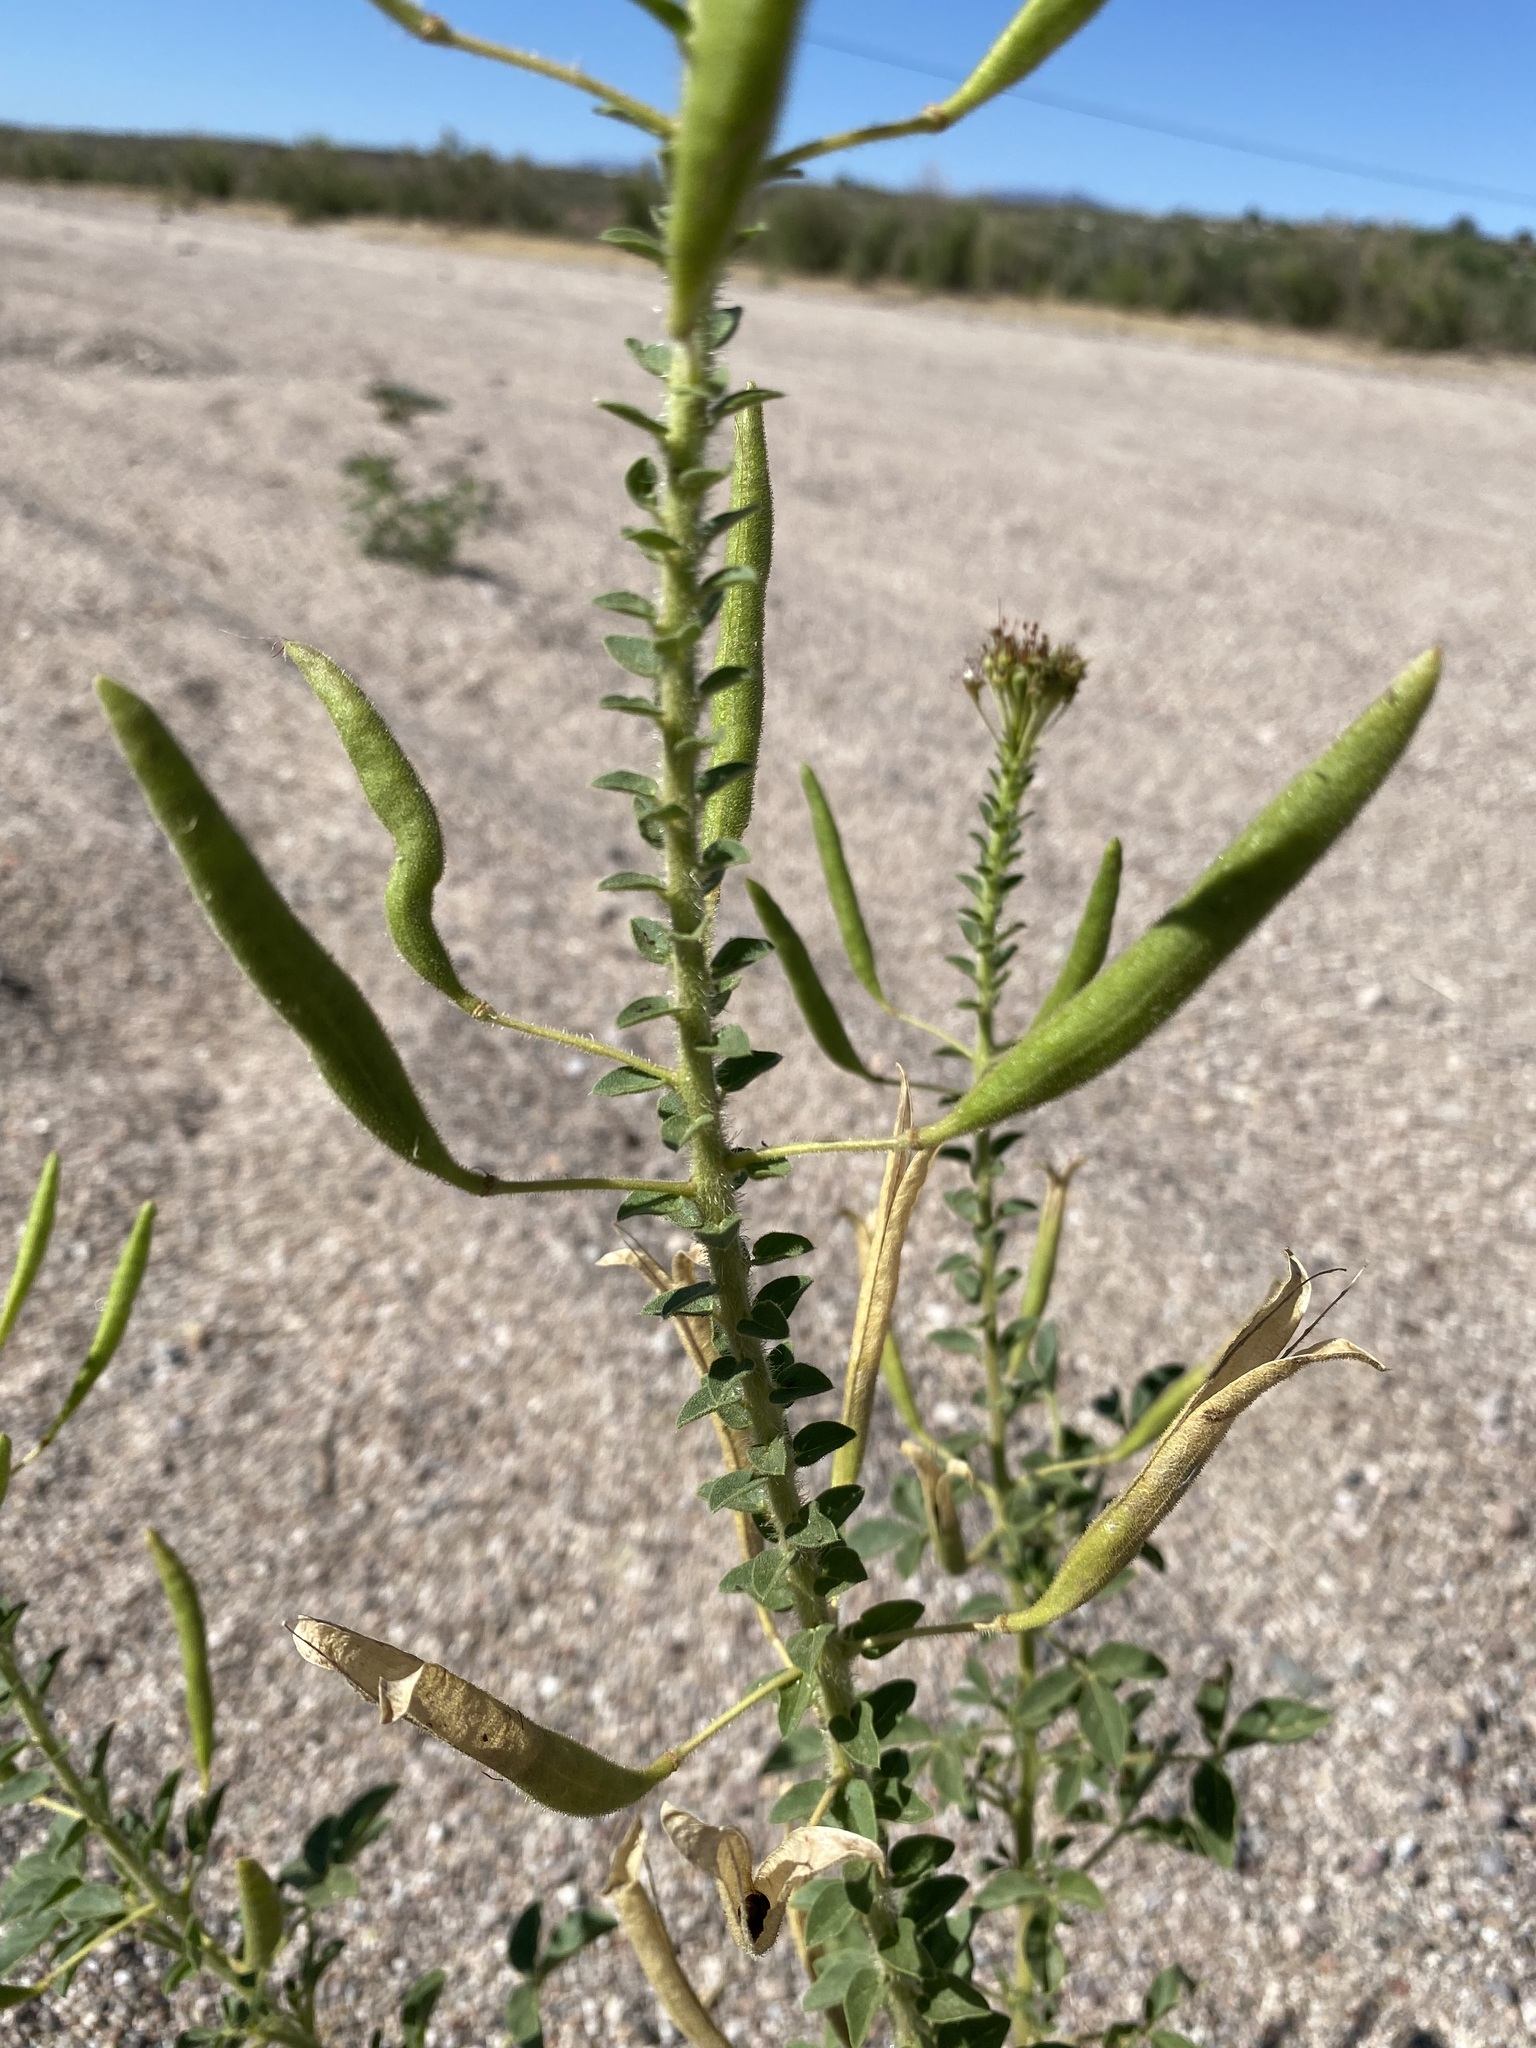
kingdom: Plantae
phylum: Tracheophyta
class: Magnoliopsida
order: Brassicales
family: Cleomaceae
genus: Polanisia
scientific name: Polanisia dodecandra
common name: Clammyweed
